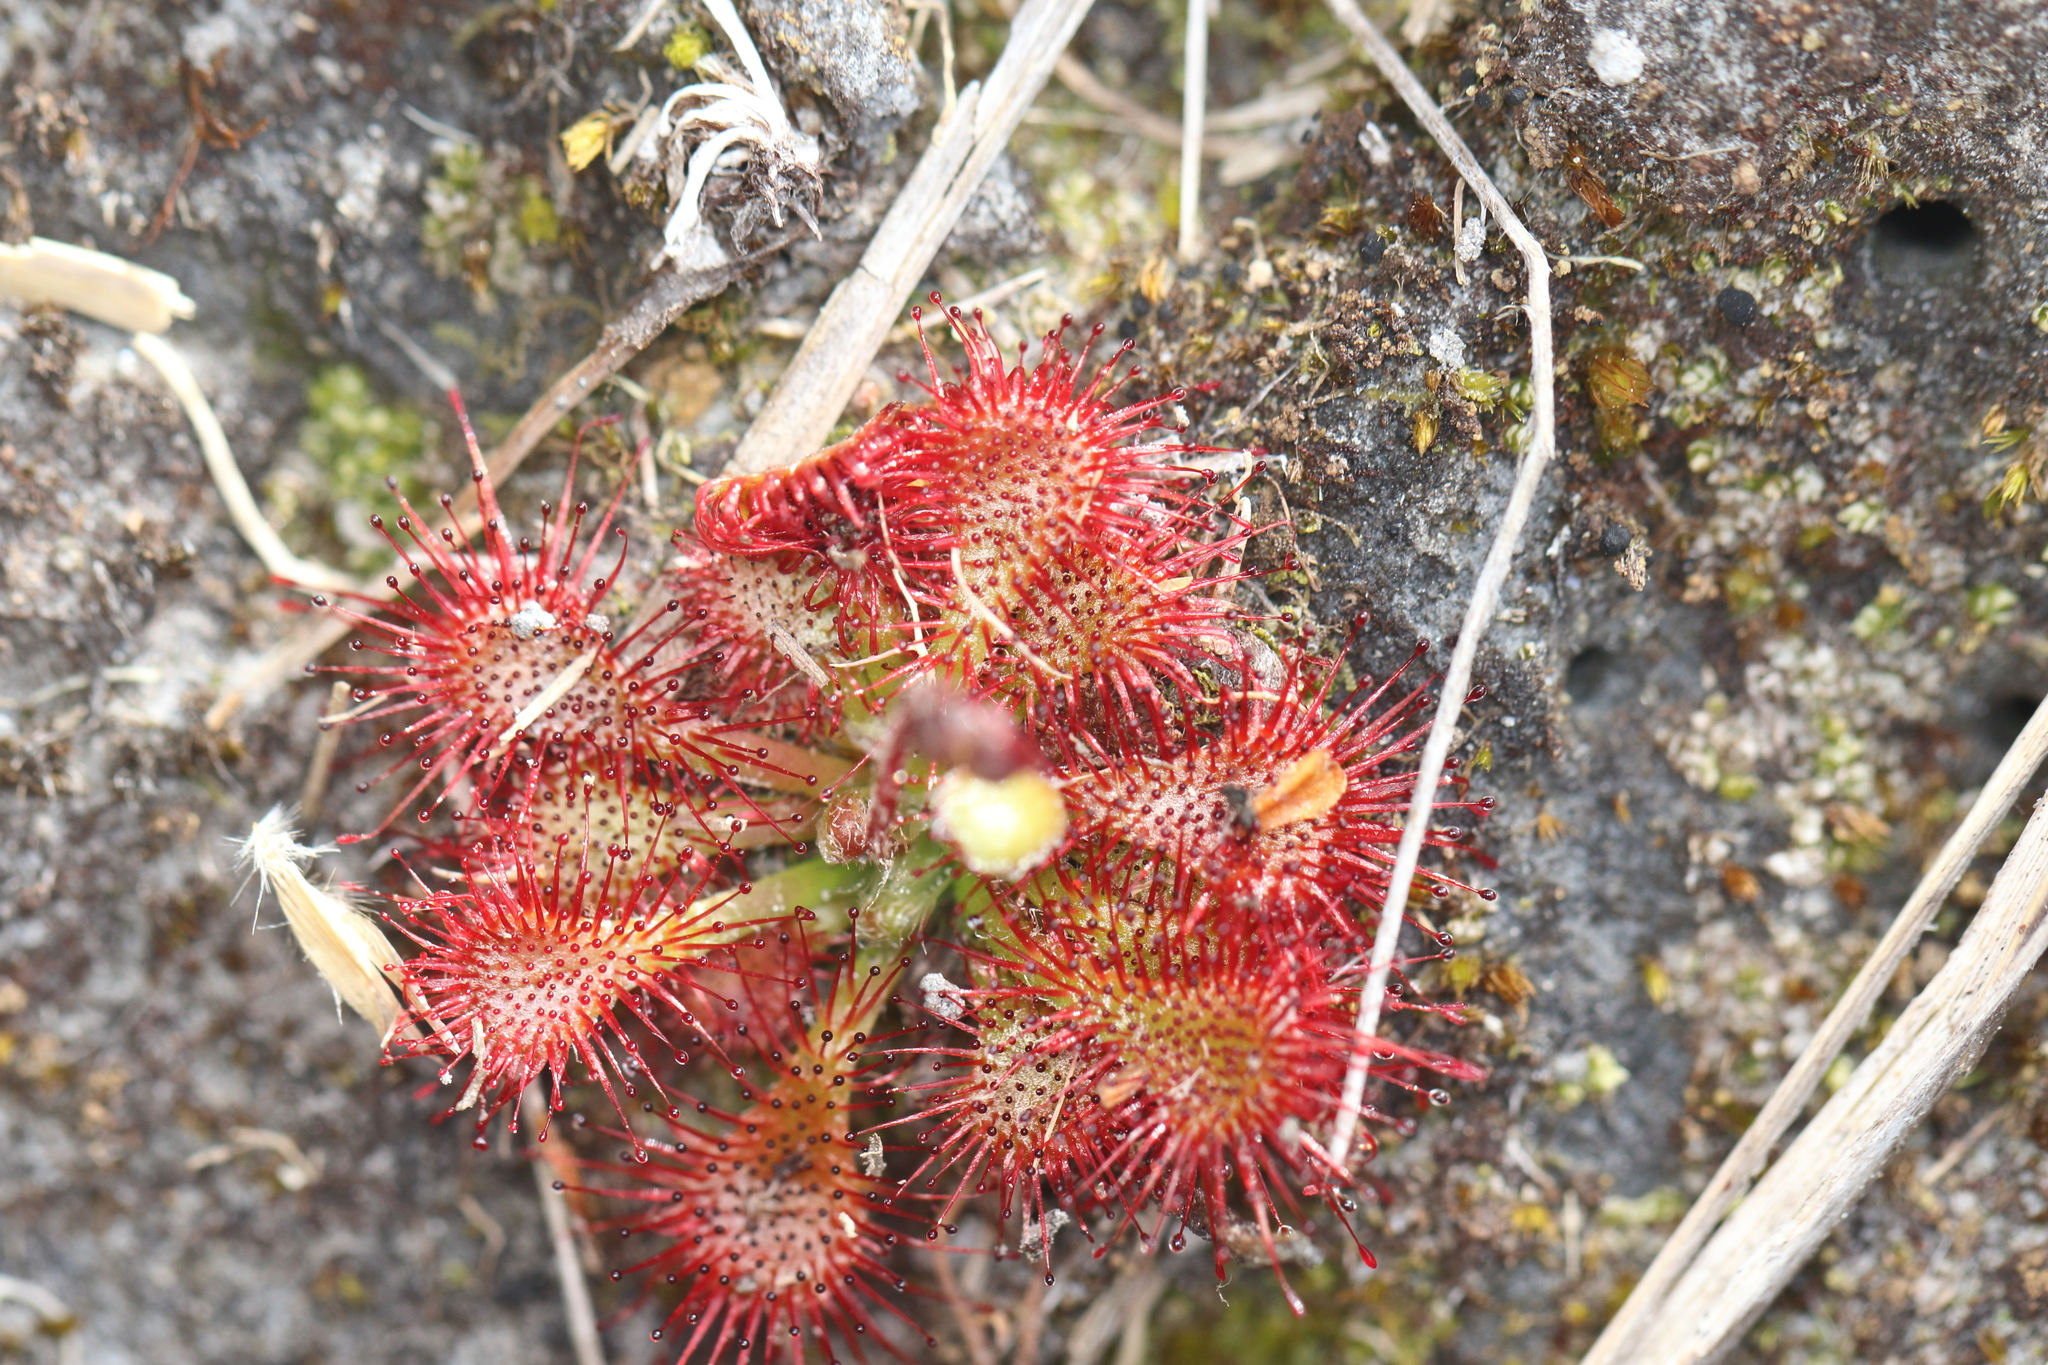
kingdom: Plantae
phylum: Tracheophyta
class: Magnoliopsida
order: Caryophyllales
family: Droseraceae
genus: Drosera
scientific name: Drosera spatulata
